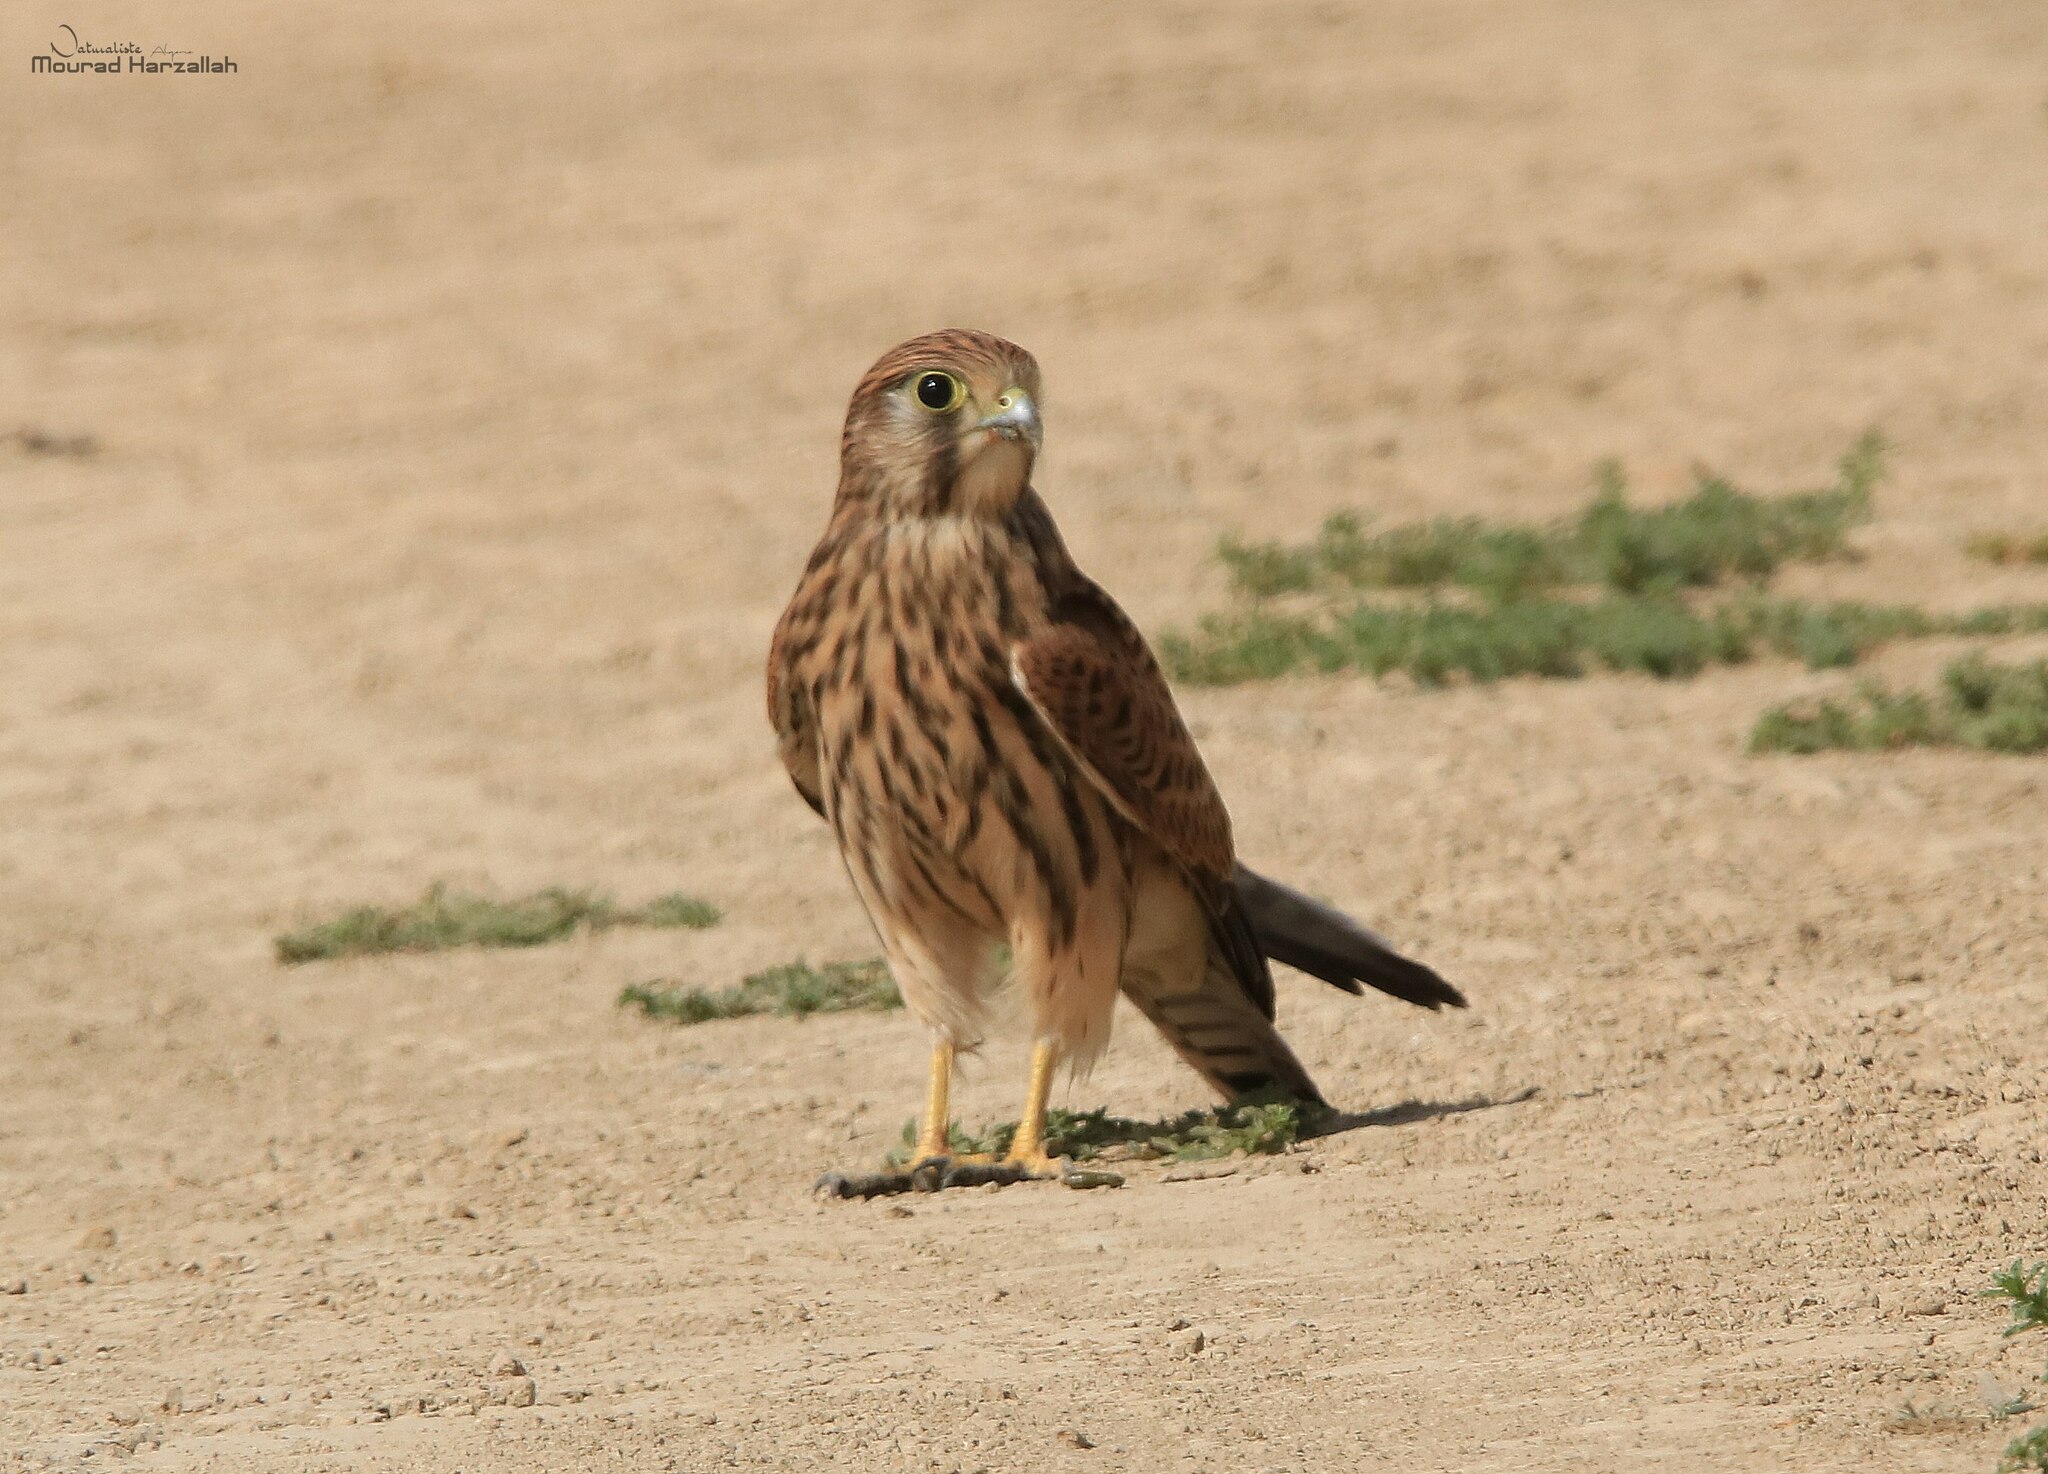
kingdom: Animalia
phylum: Chordata
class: Aves
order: Falconiformes
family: Falconidae
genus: Falco
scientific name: Falco tinnunculus
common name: Common kestrel
